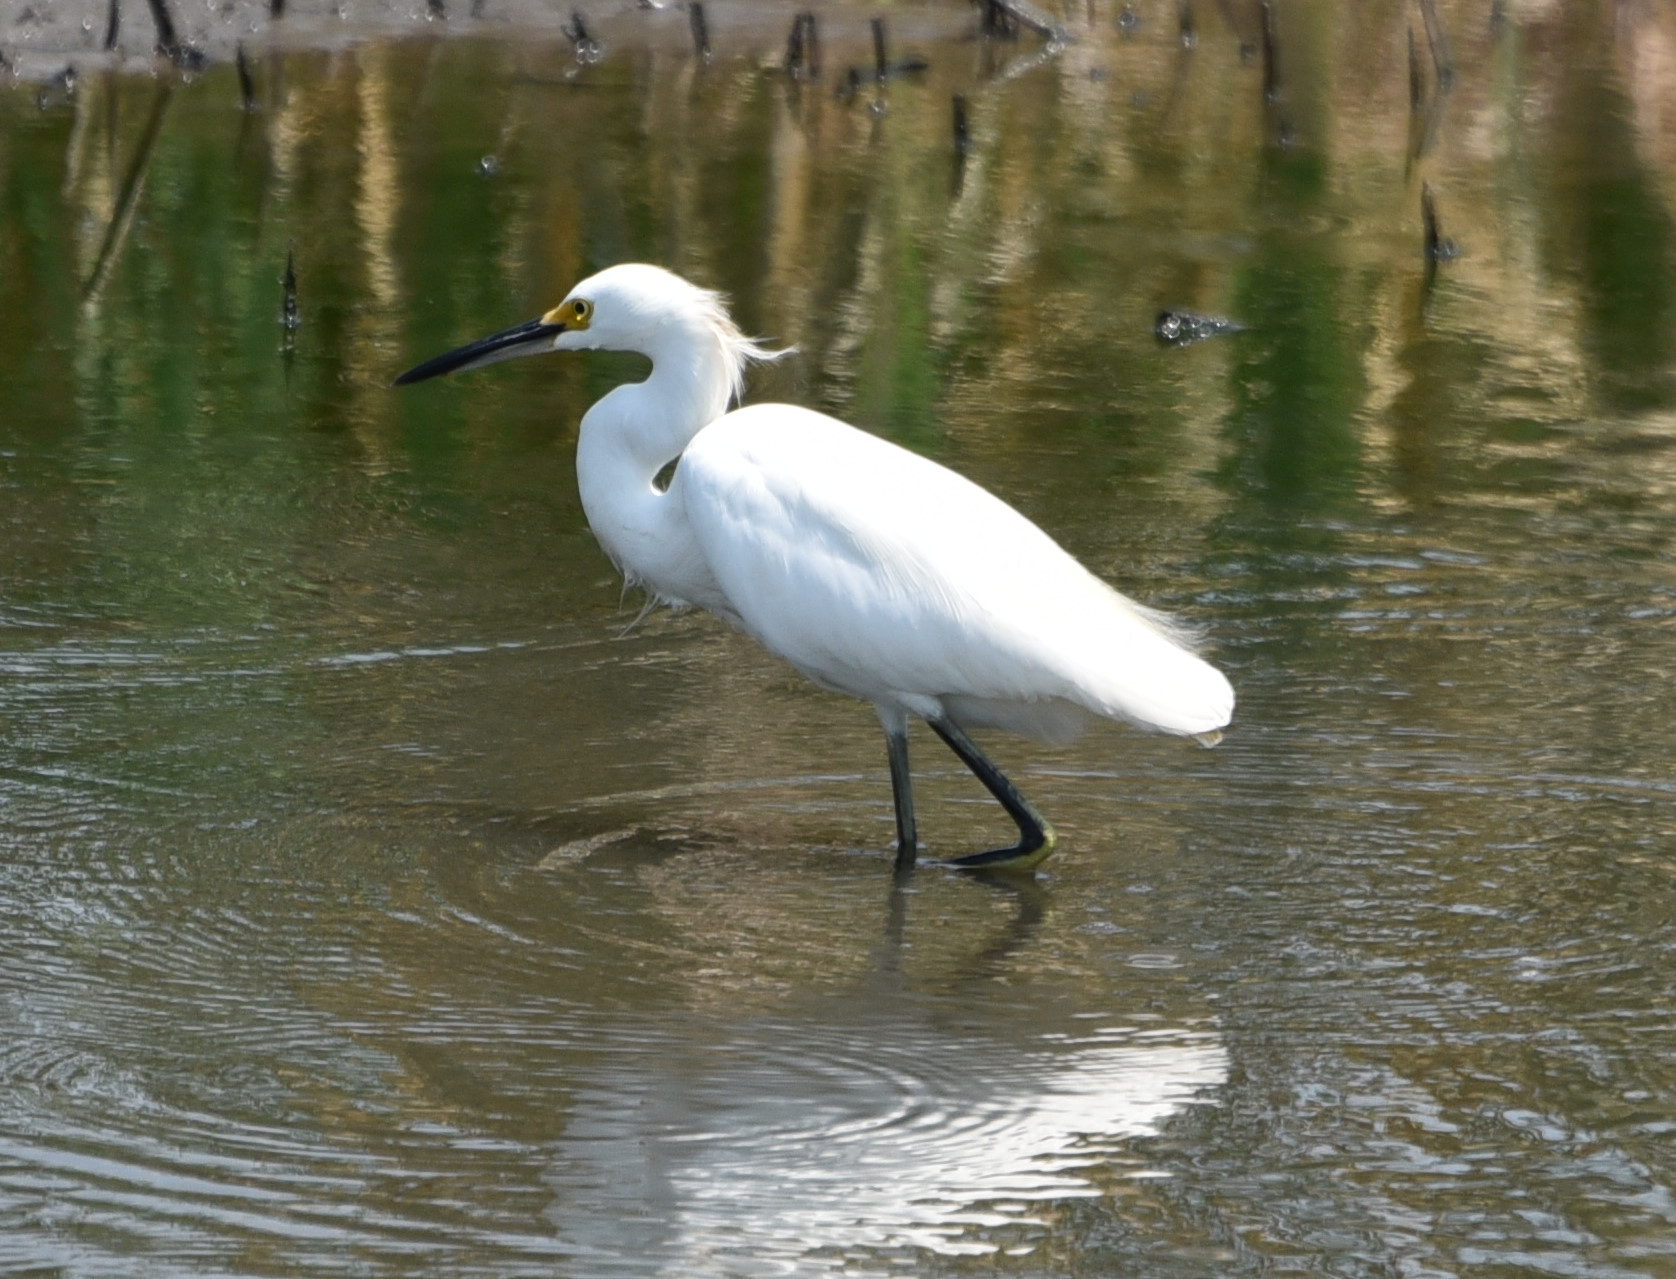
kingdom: Animalia
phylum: Chordata
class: Aves
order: Pelecaniformes
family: Ardeidae
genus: Egretta
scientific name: Egretta thula
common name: Snowy egret
